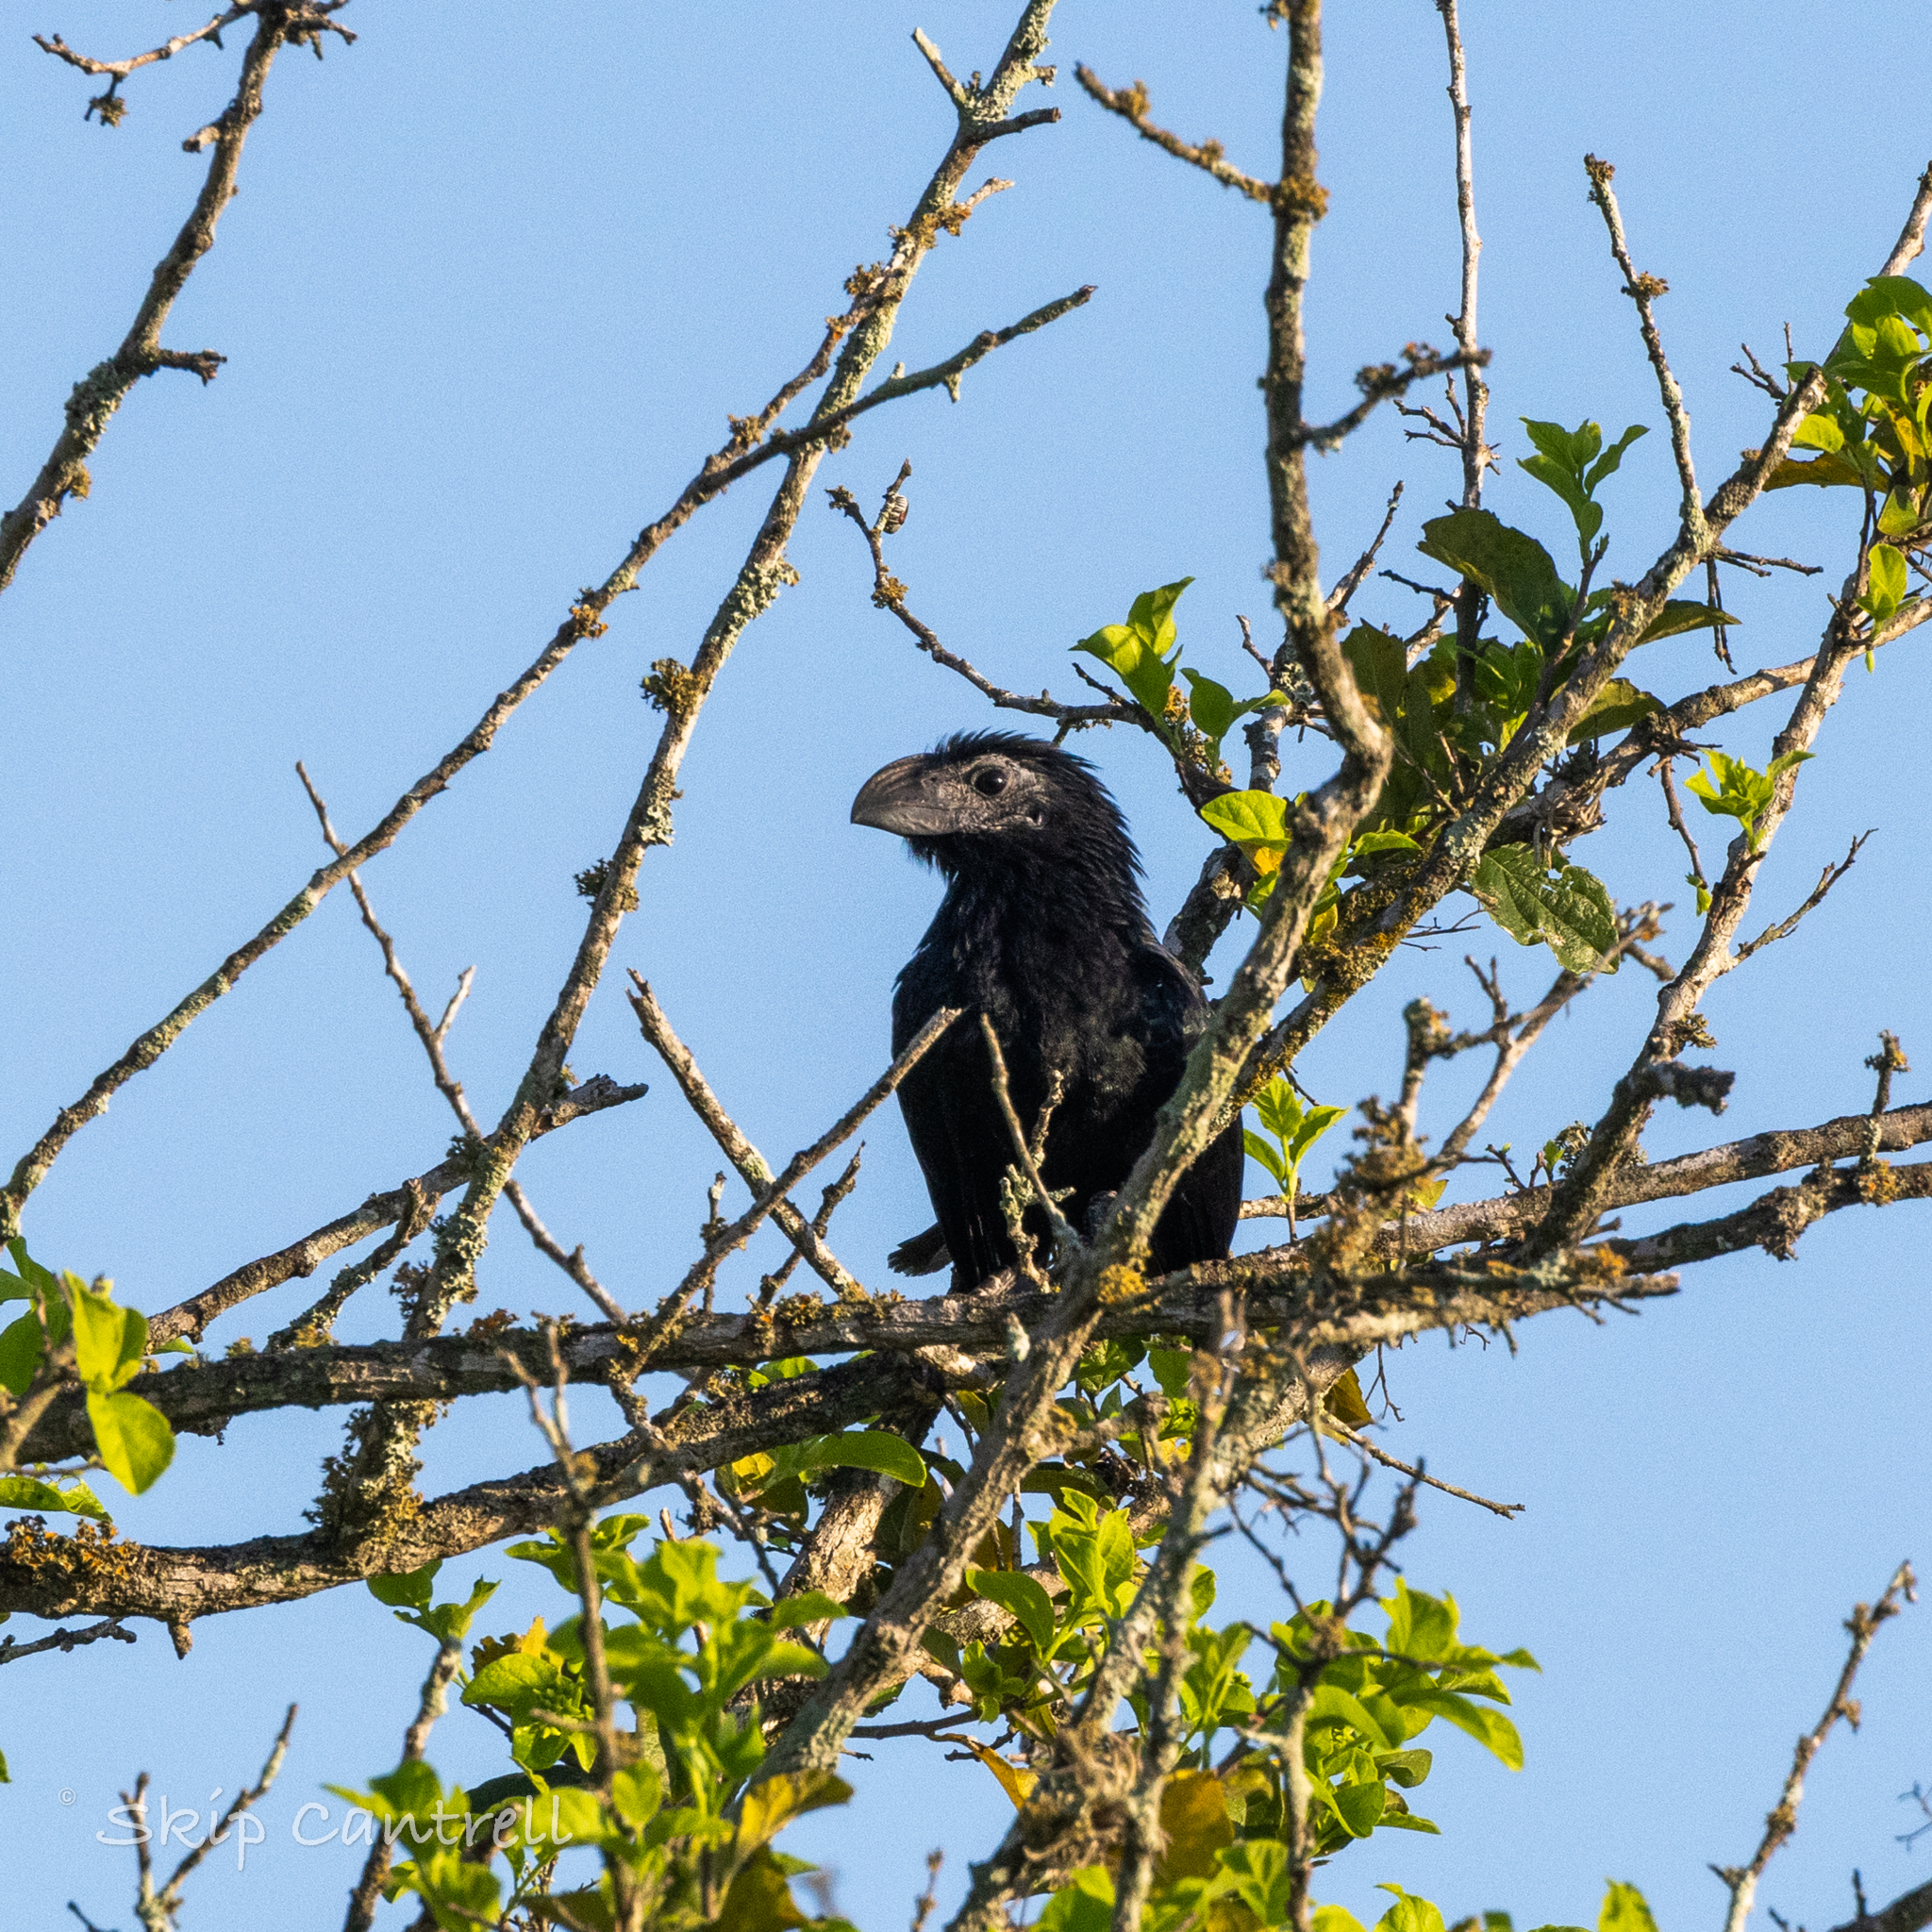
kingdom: Animalia
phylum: Chordata
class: Aves
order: Cuculiformes
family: Cuculidae
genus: Crotophaga
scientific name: Crotophaga sulcirostris
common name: Groove-billed ani
